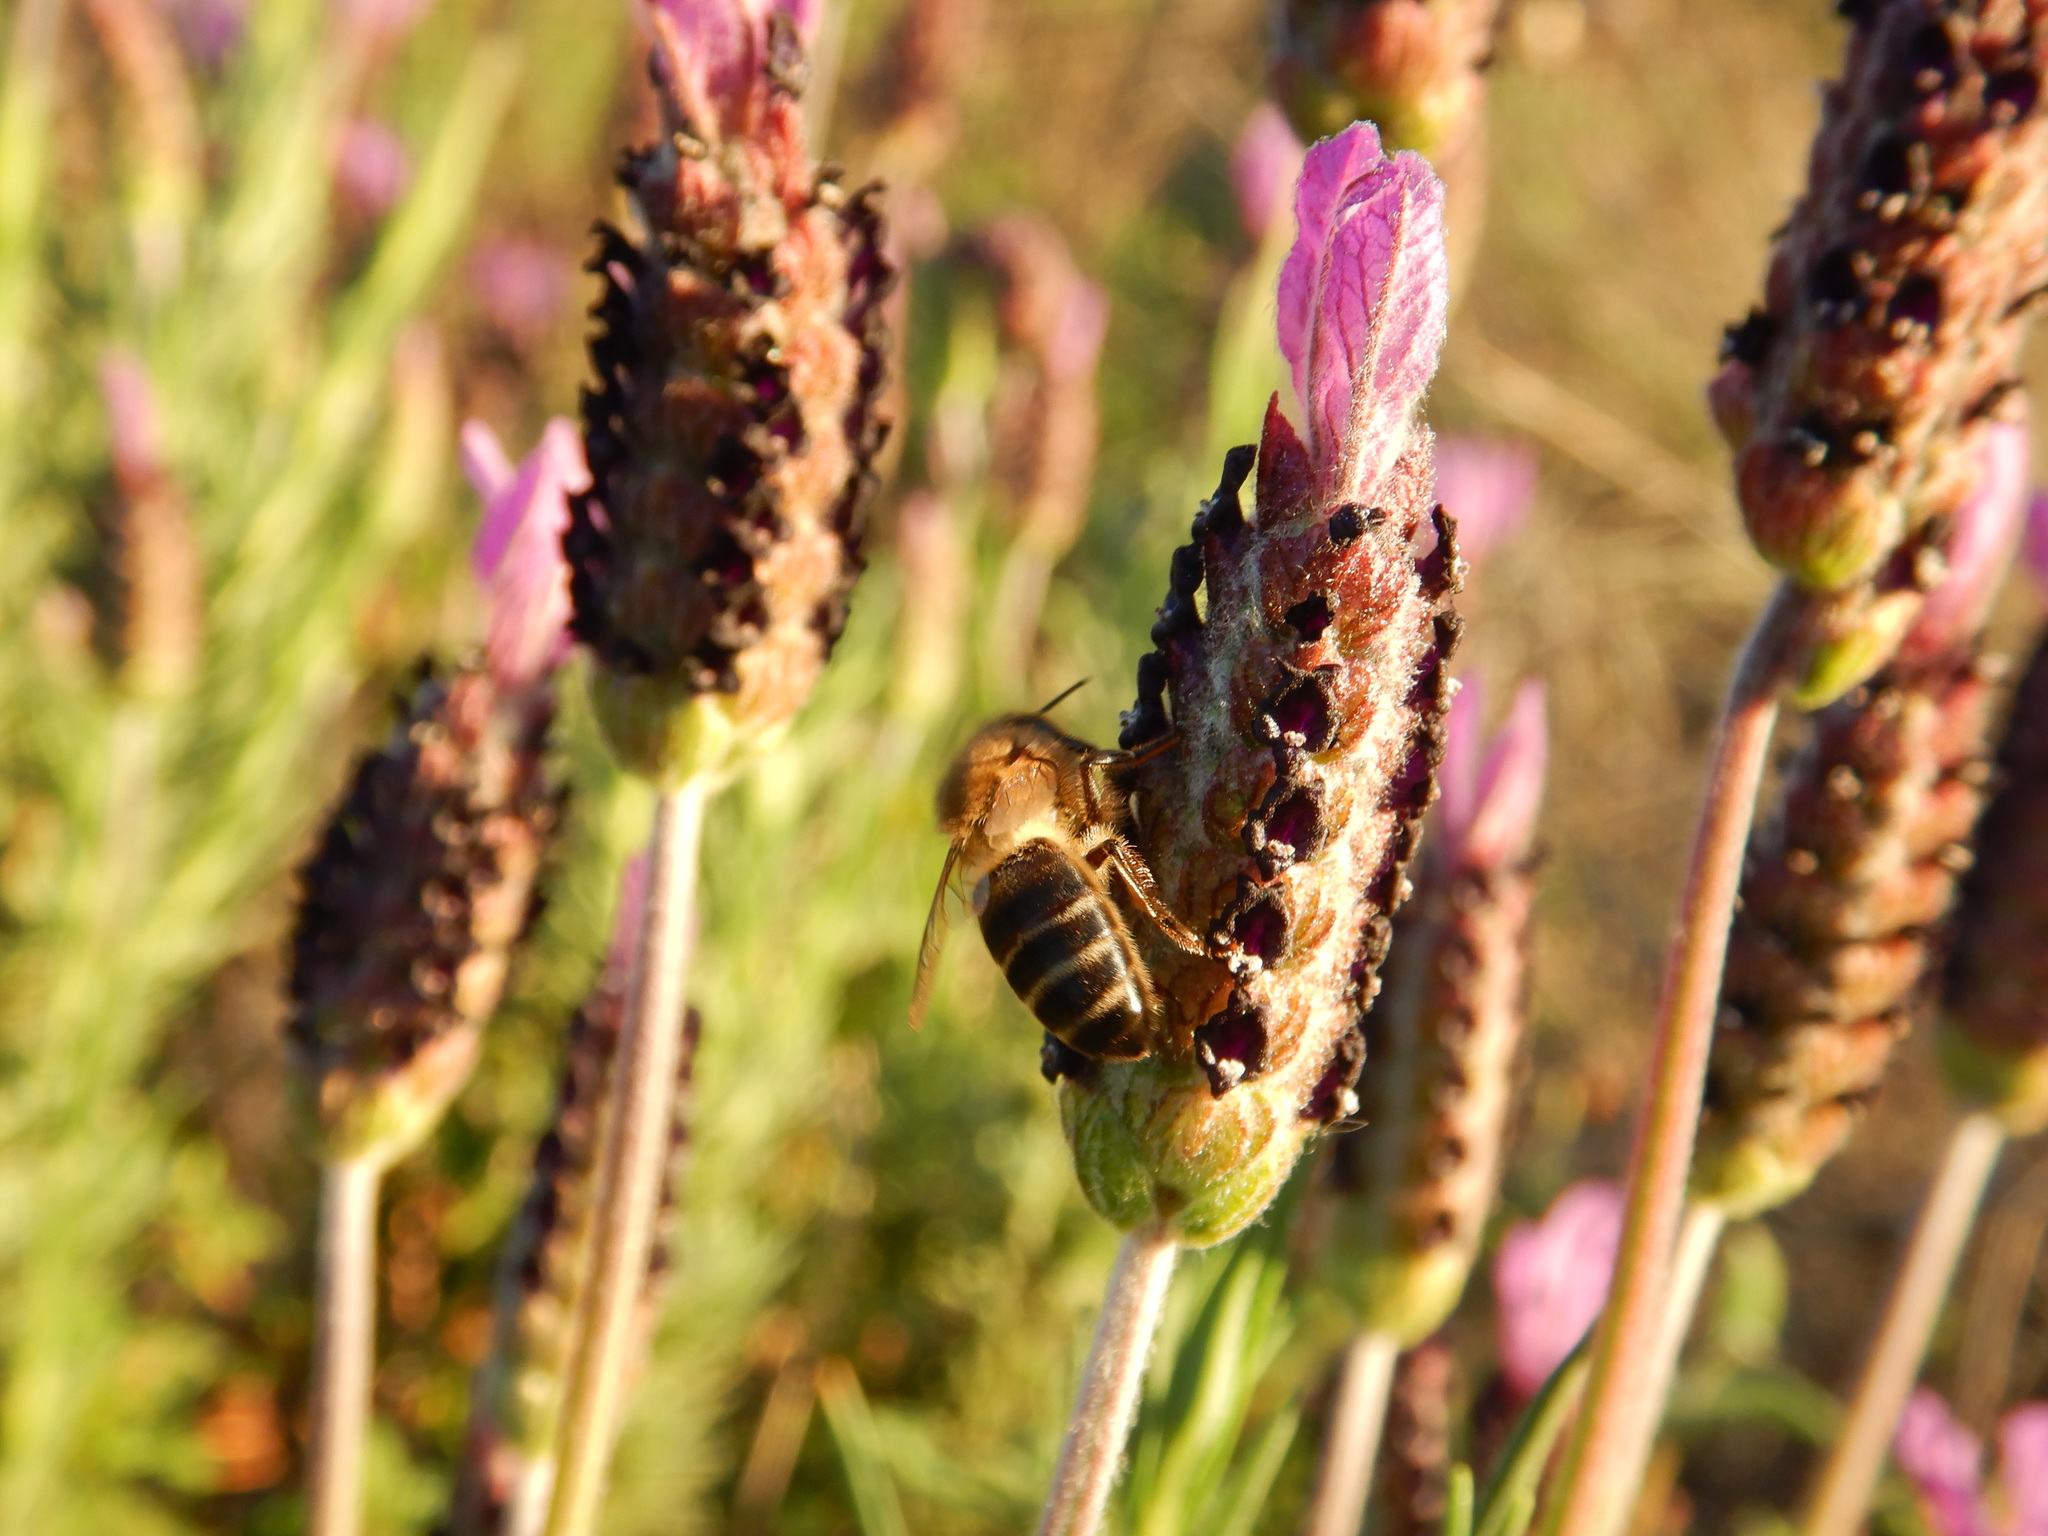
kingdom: Animalia
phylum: Arthropoda
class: Insecta
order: Hymenoptera
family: Apidae
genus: Apis
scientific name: Apis mellifera
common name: Honey bee
